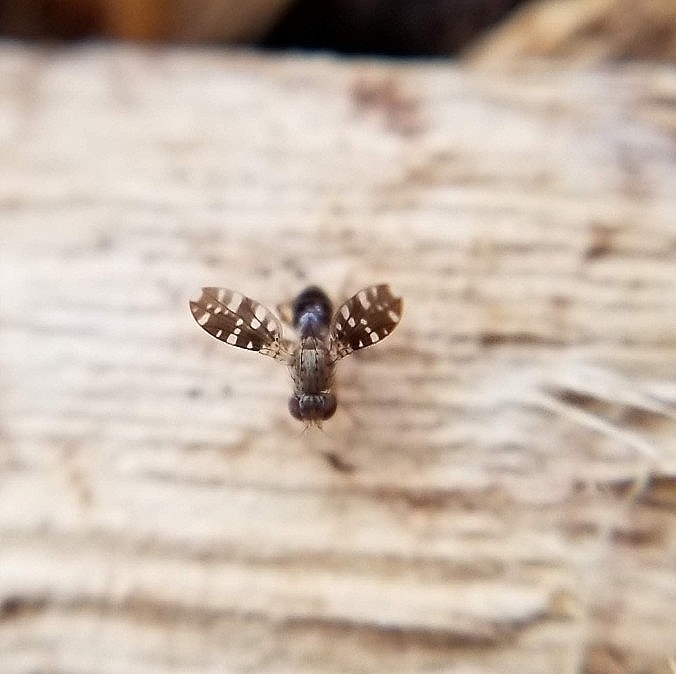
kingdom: Animalia
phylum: Arthropoda
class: Insecta
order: Diptera
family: Heleomyzidae
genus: Trixoscelis
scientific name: Trixoscelis polita
